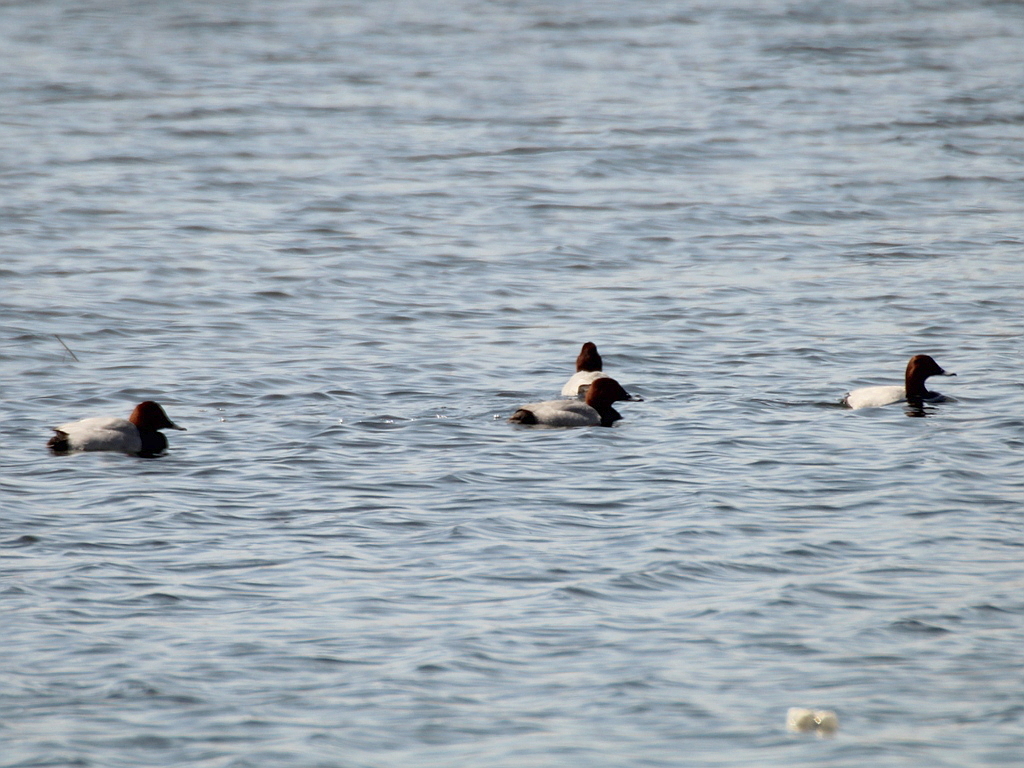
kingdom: Animalia
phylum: Chordata
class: Aves
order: Anseriformes
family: Anatidae
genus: Aythya
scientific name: Aythya ferina
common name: Common pochard
